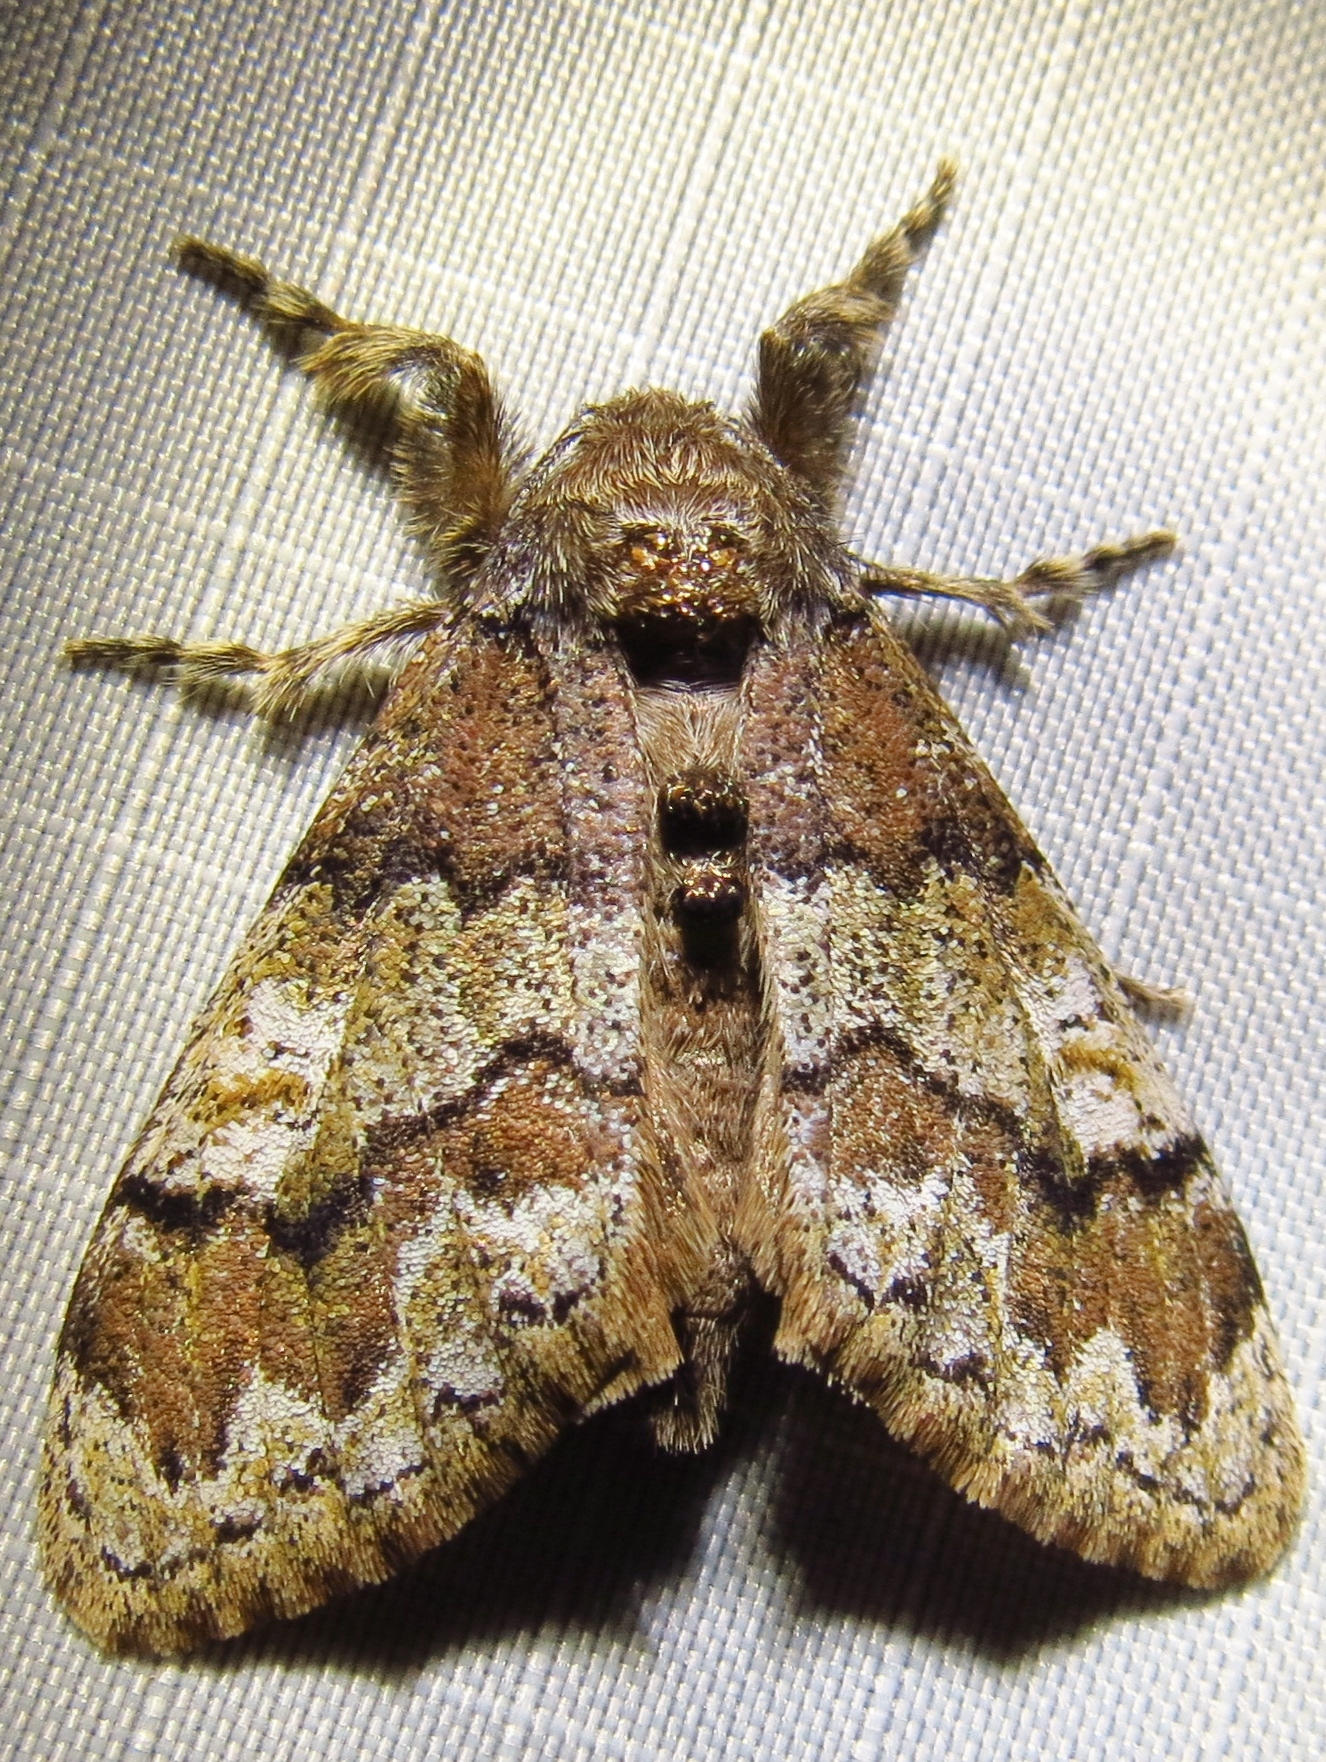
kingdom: Animalia
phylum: Arthropoda
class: Insecta
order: Lepidoptera
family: Erebidae
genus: Dasychira
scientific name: Dasychira manto
